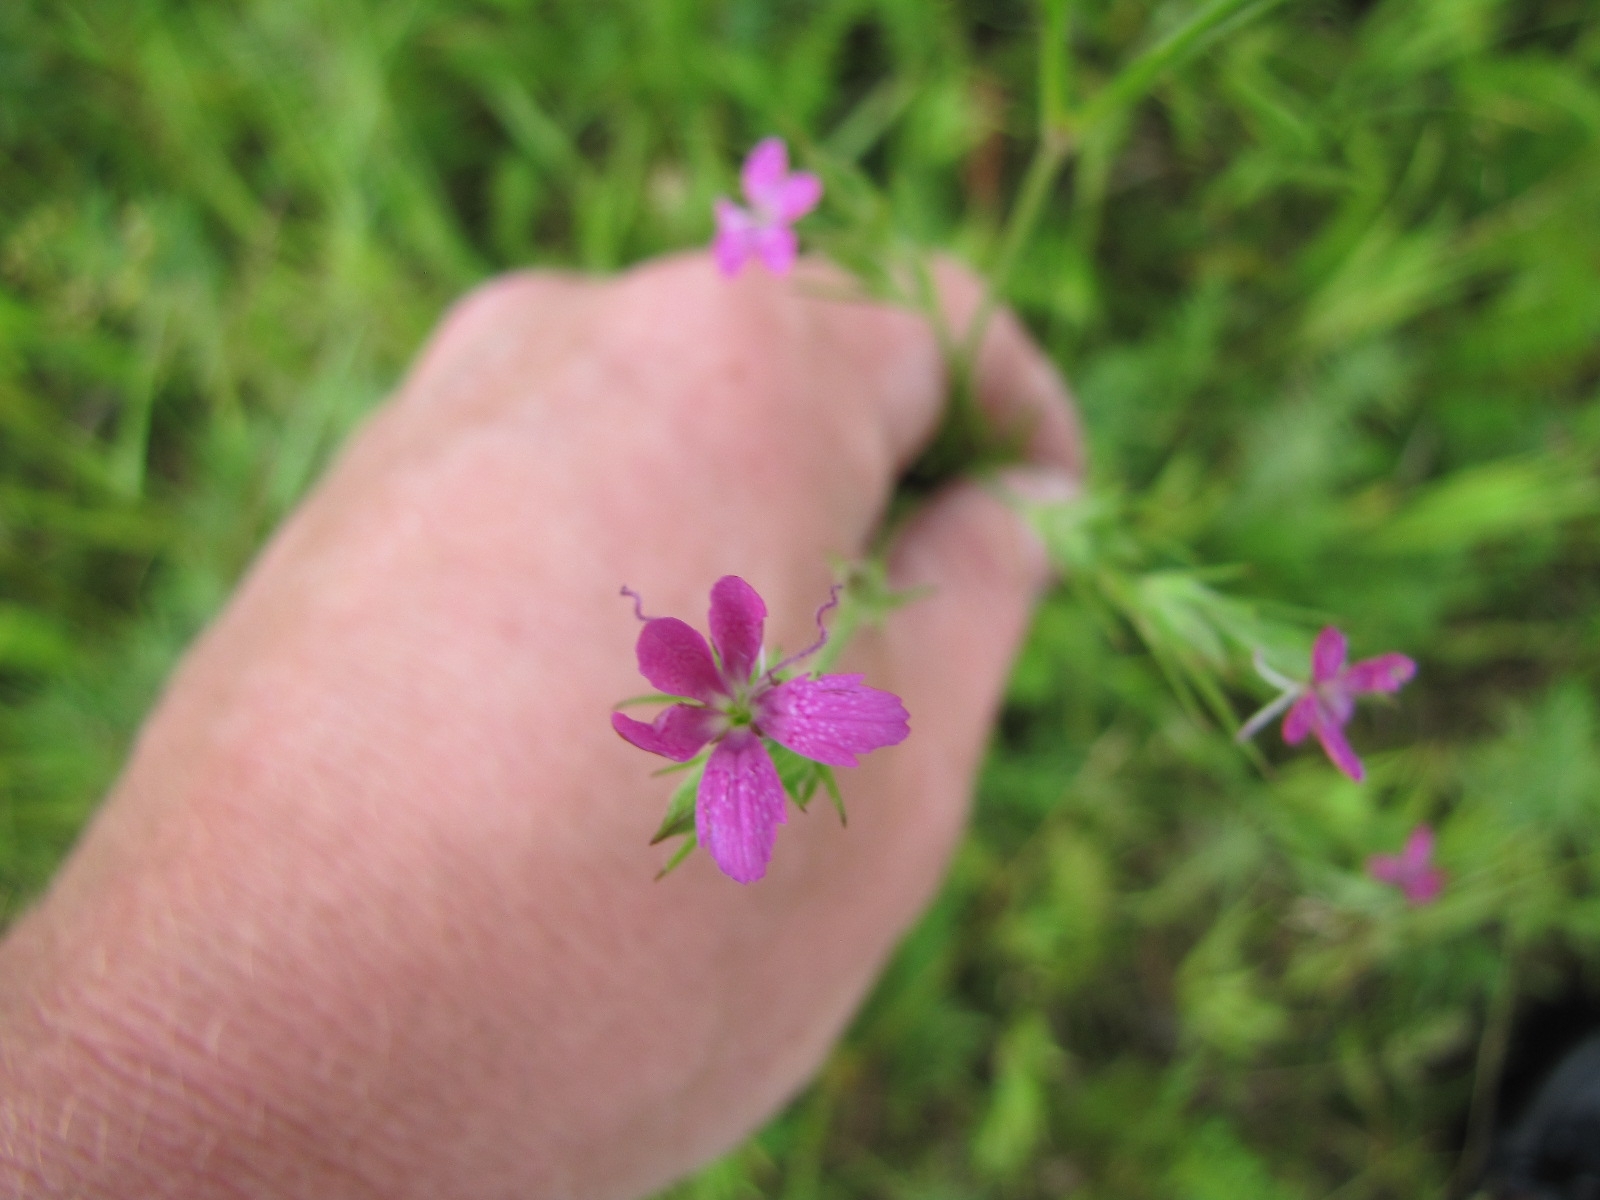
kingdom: Plantae
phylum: Tracheophyta
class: Magnoliopsida
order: Caryophyllales
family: Caryophyllaceae
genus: Dianthus
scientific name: Dianthus armeria
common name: Deptford pink
